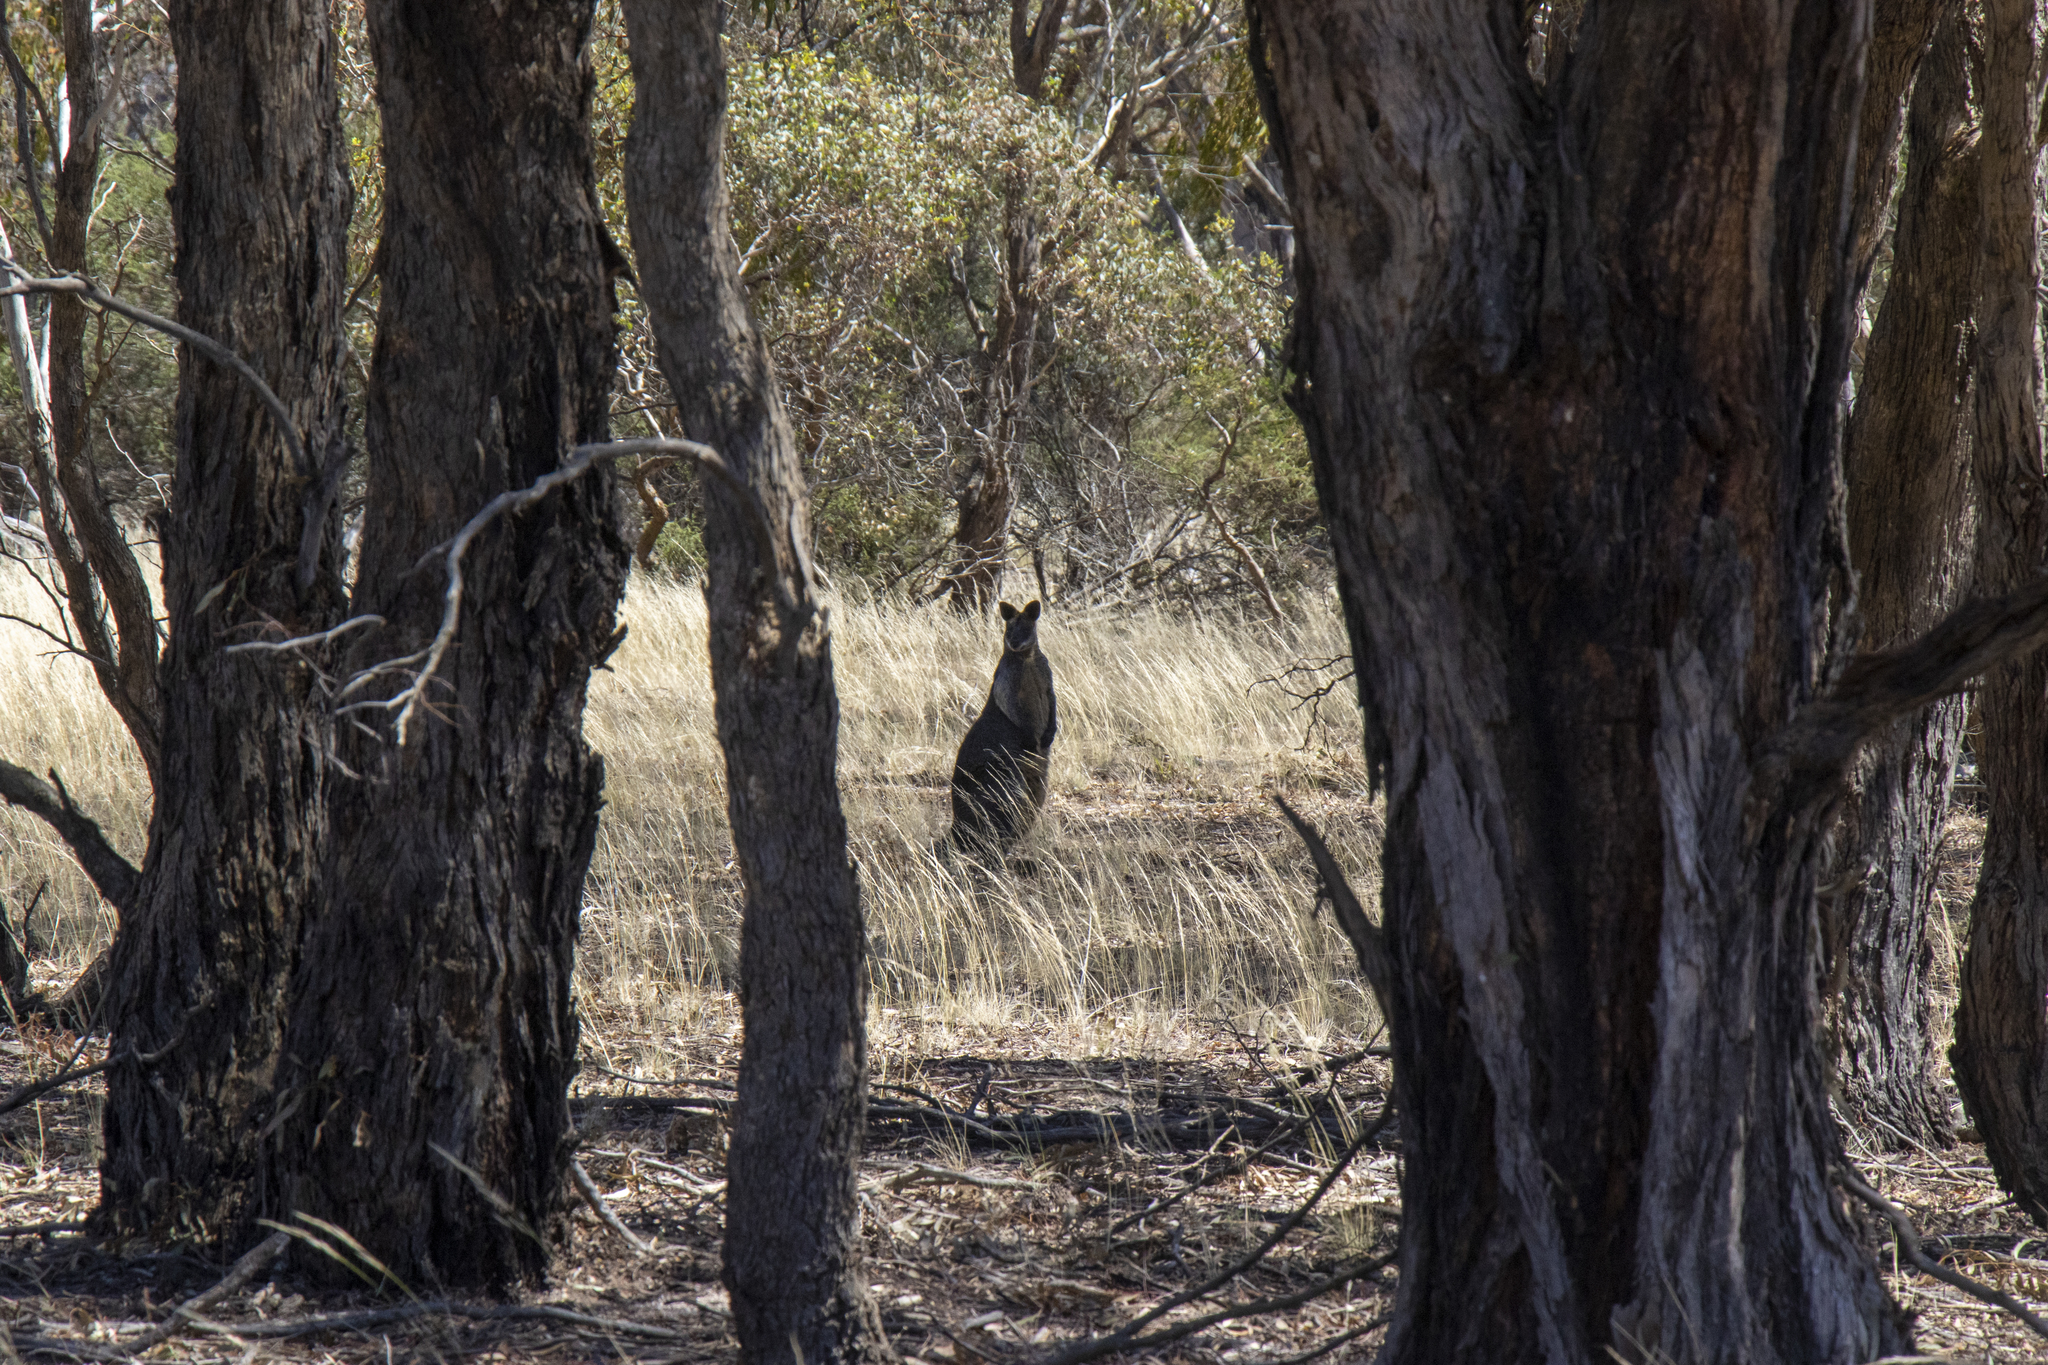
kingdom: Animalia
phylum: Chordata
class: Mammalia
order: Diprotodontia
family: Macropodidae
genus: Wallabia
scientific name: Wallabia bicolor
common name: Swamp wallaby
